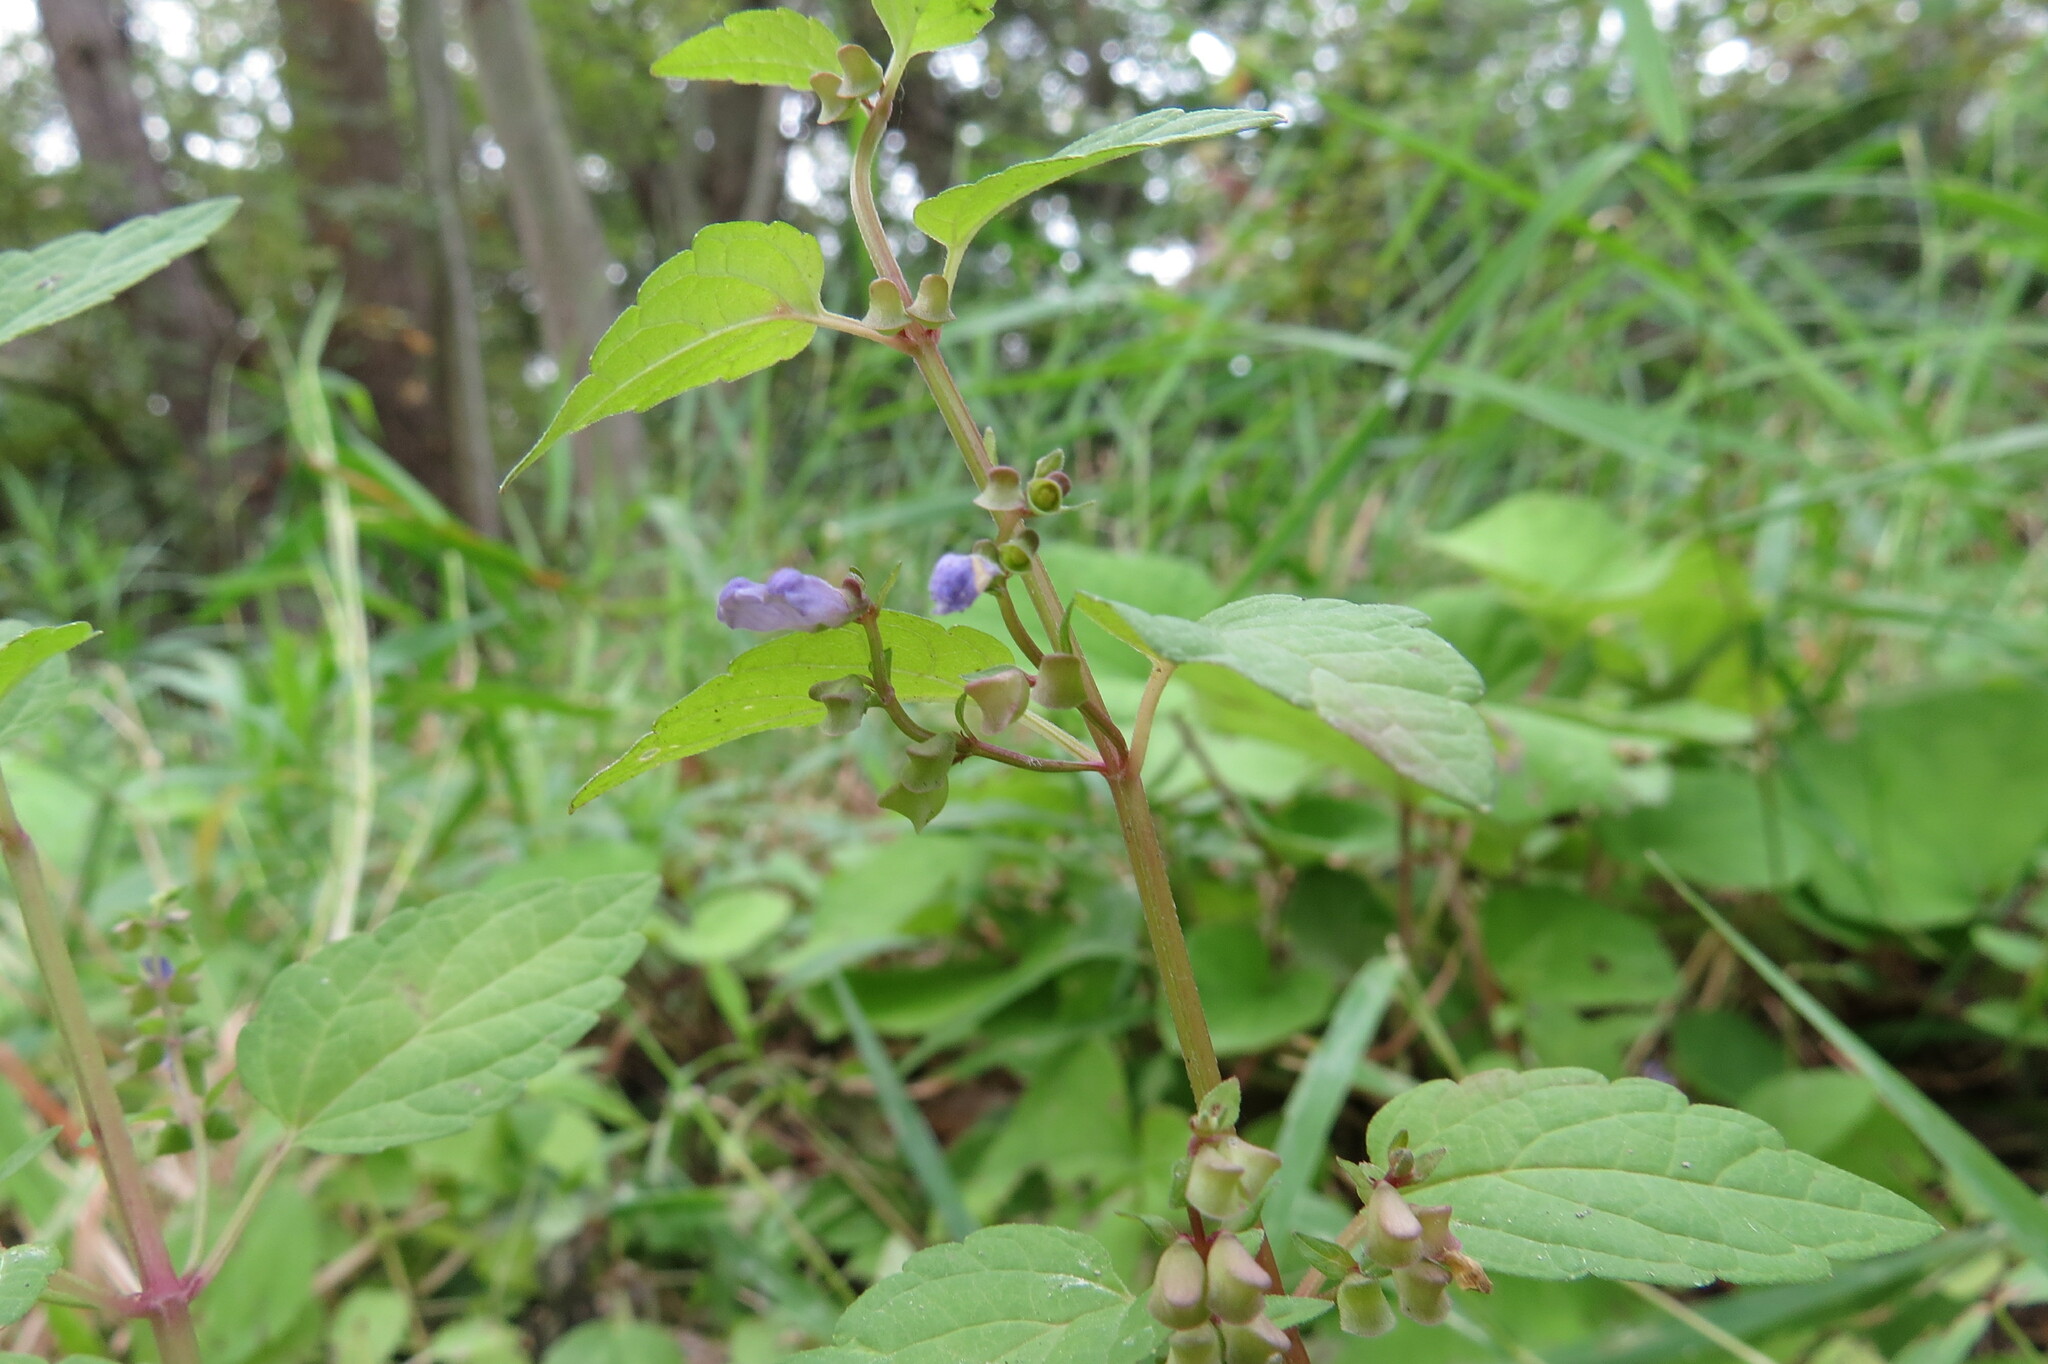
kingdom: Plantae
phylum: Tracheophyta
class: Magnoliopsida
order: Lamiales
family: Lamiaceae
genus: Scutellaria
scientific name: Scutellaria lateriflora
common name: Blue skullcap
